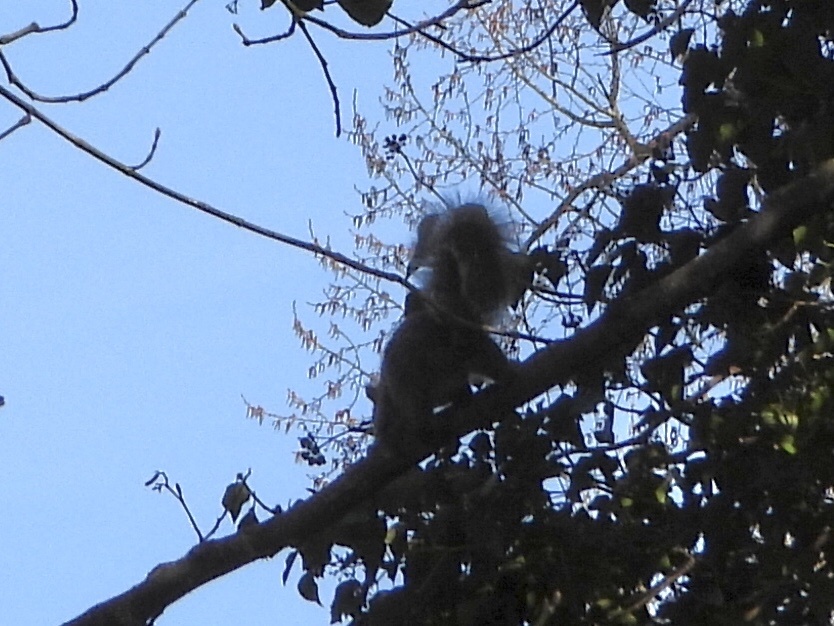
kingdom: Animalia
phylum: Chordata
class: Mammalia
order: Rodentia
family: Sciuridae
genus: Sciurus
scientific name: Sciurus carolinensis
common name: Eastern gray squirrel
